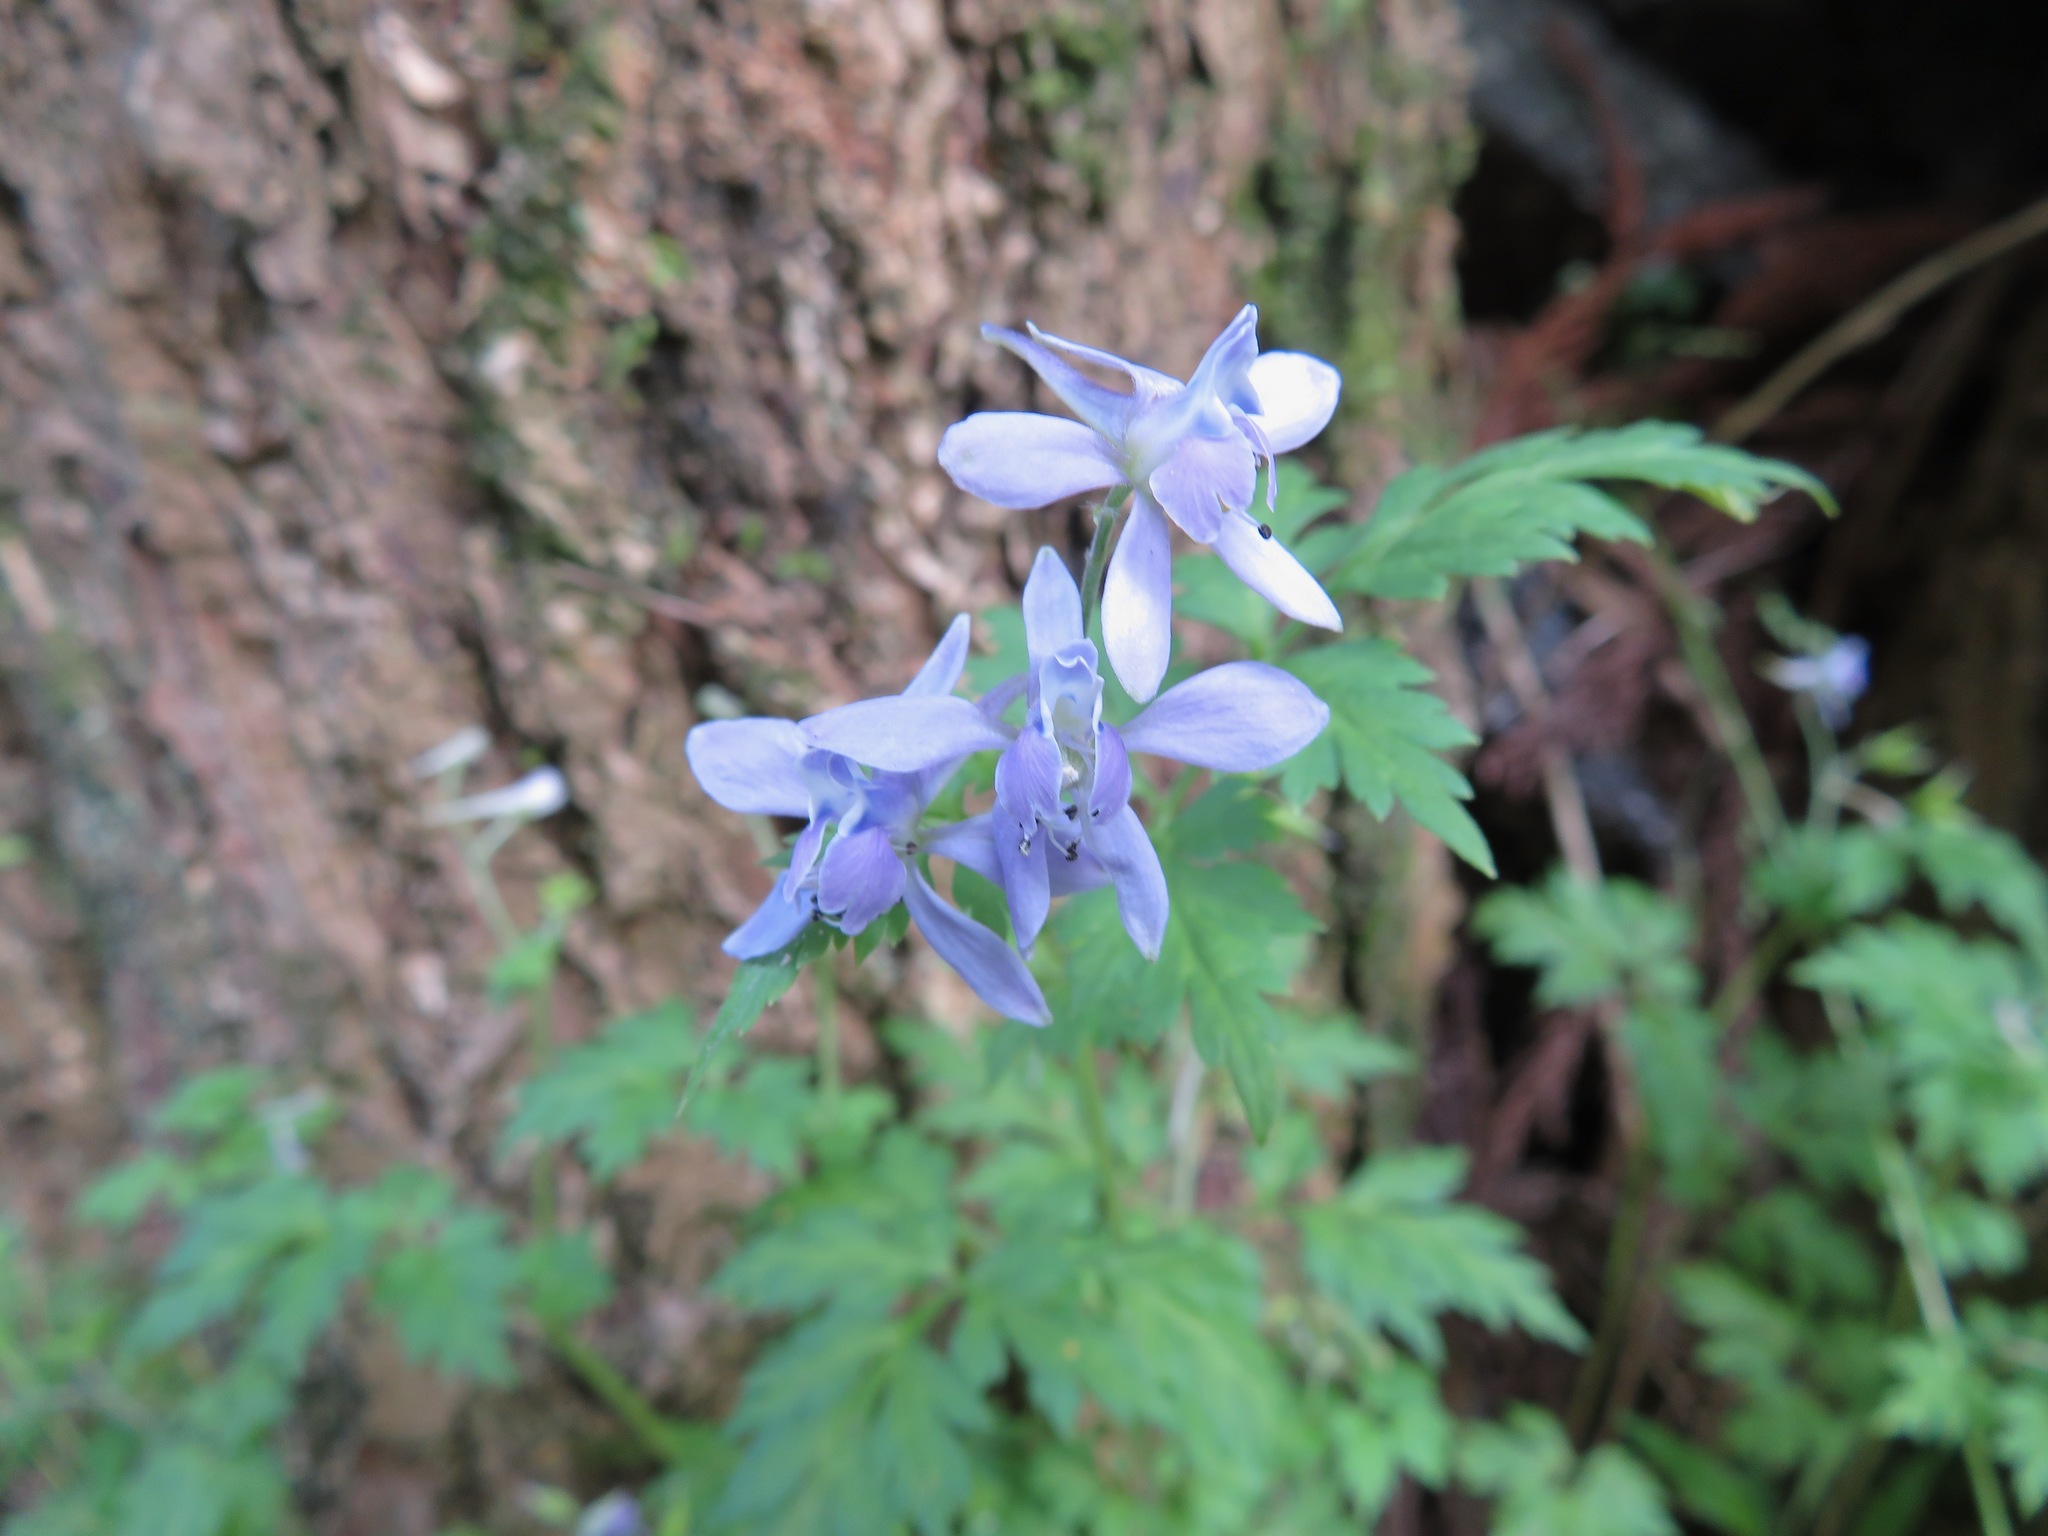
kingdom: Plantae
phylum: Tracheophyta
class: Magnoliopsida
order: Ranunculales
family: Ranunculaceae
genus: Delphinium
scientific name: Delphinium anthriscifolium
